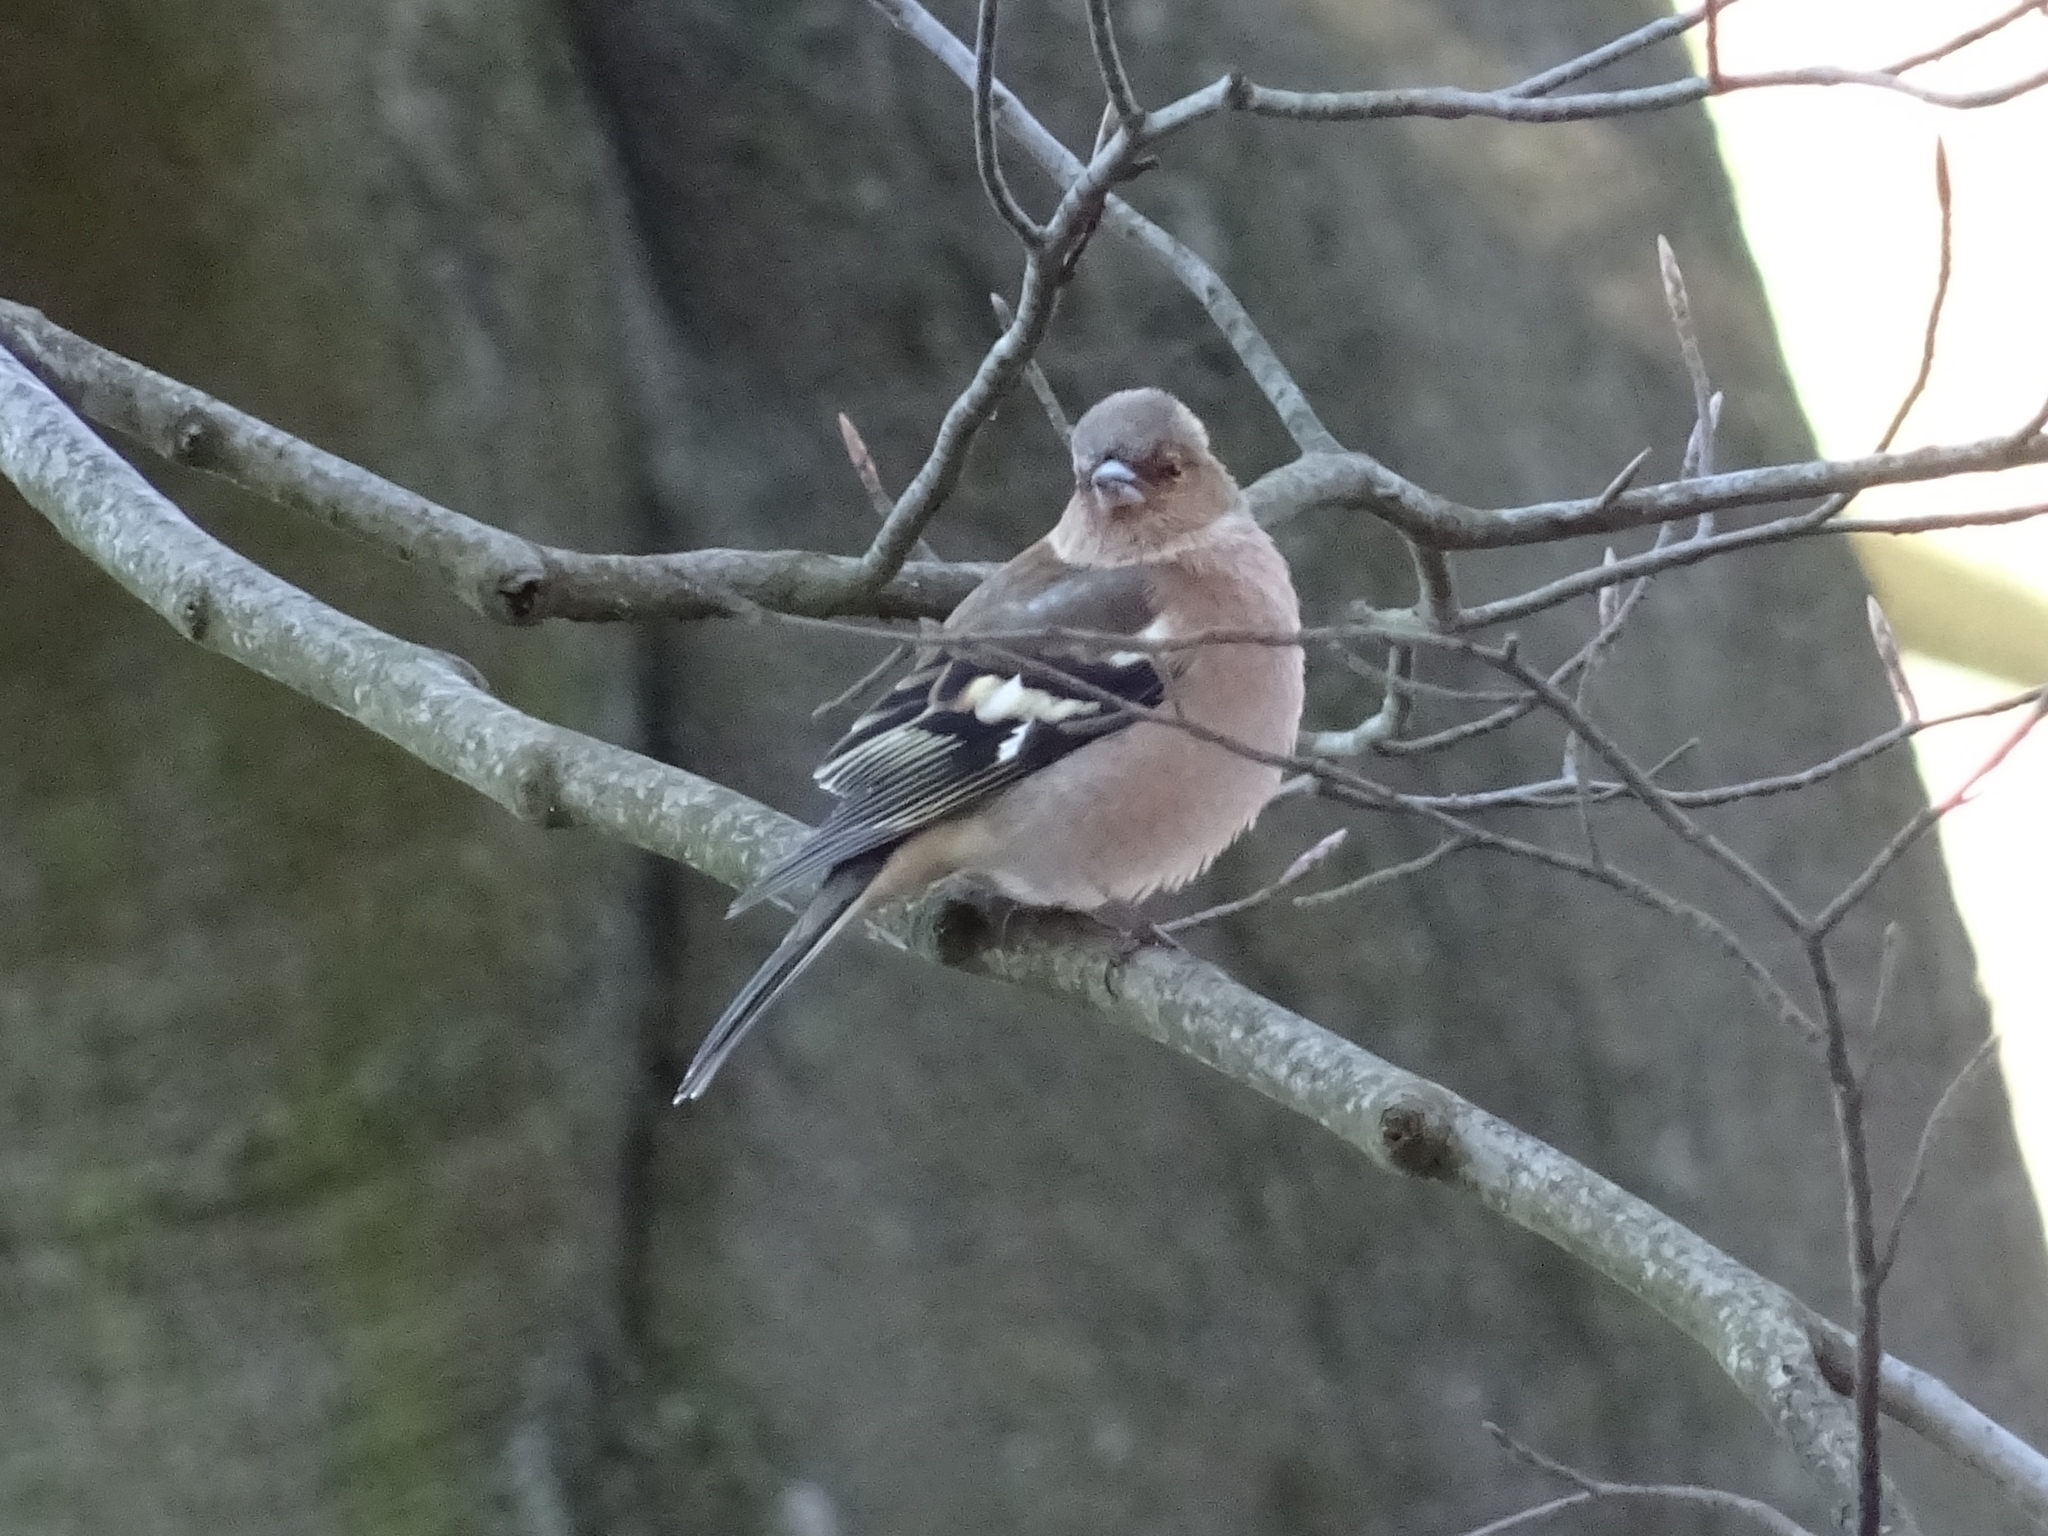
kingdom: Animalia
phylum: Chordata
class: Aves
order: Passeriformes
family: Fringillidae
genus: Fringilla
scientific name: Fringilla coelebs
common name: Common chaffinch
